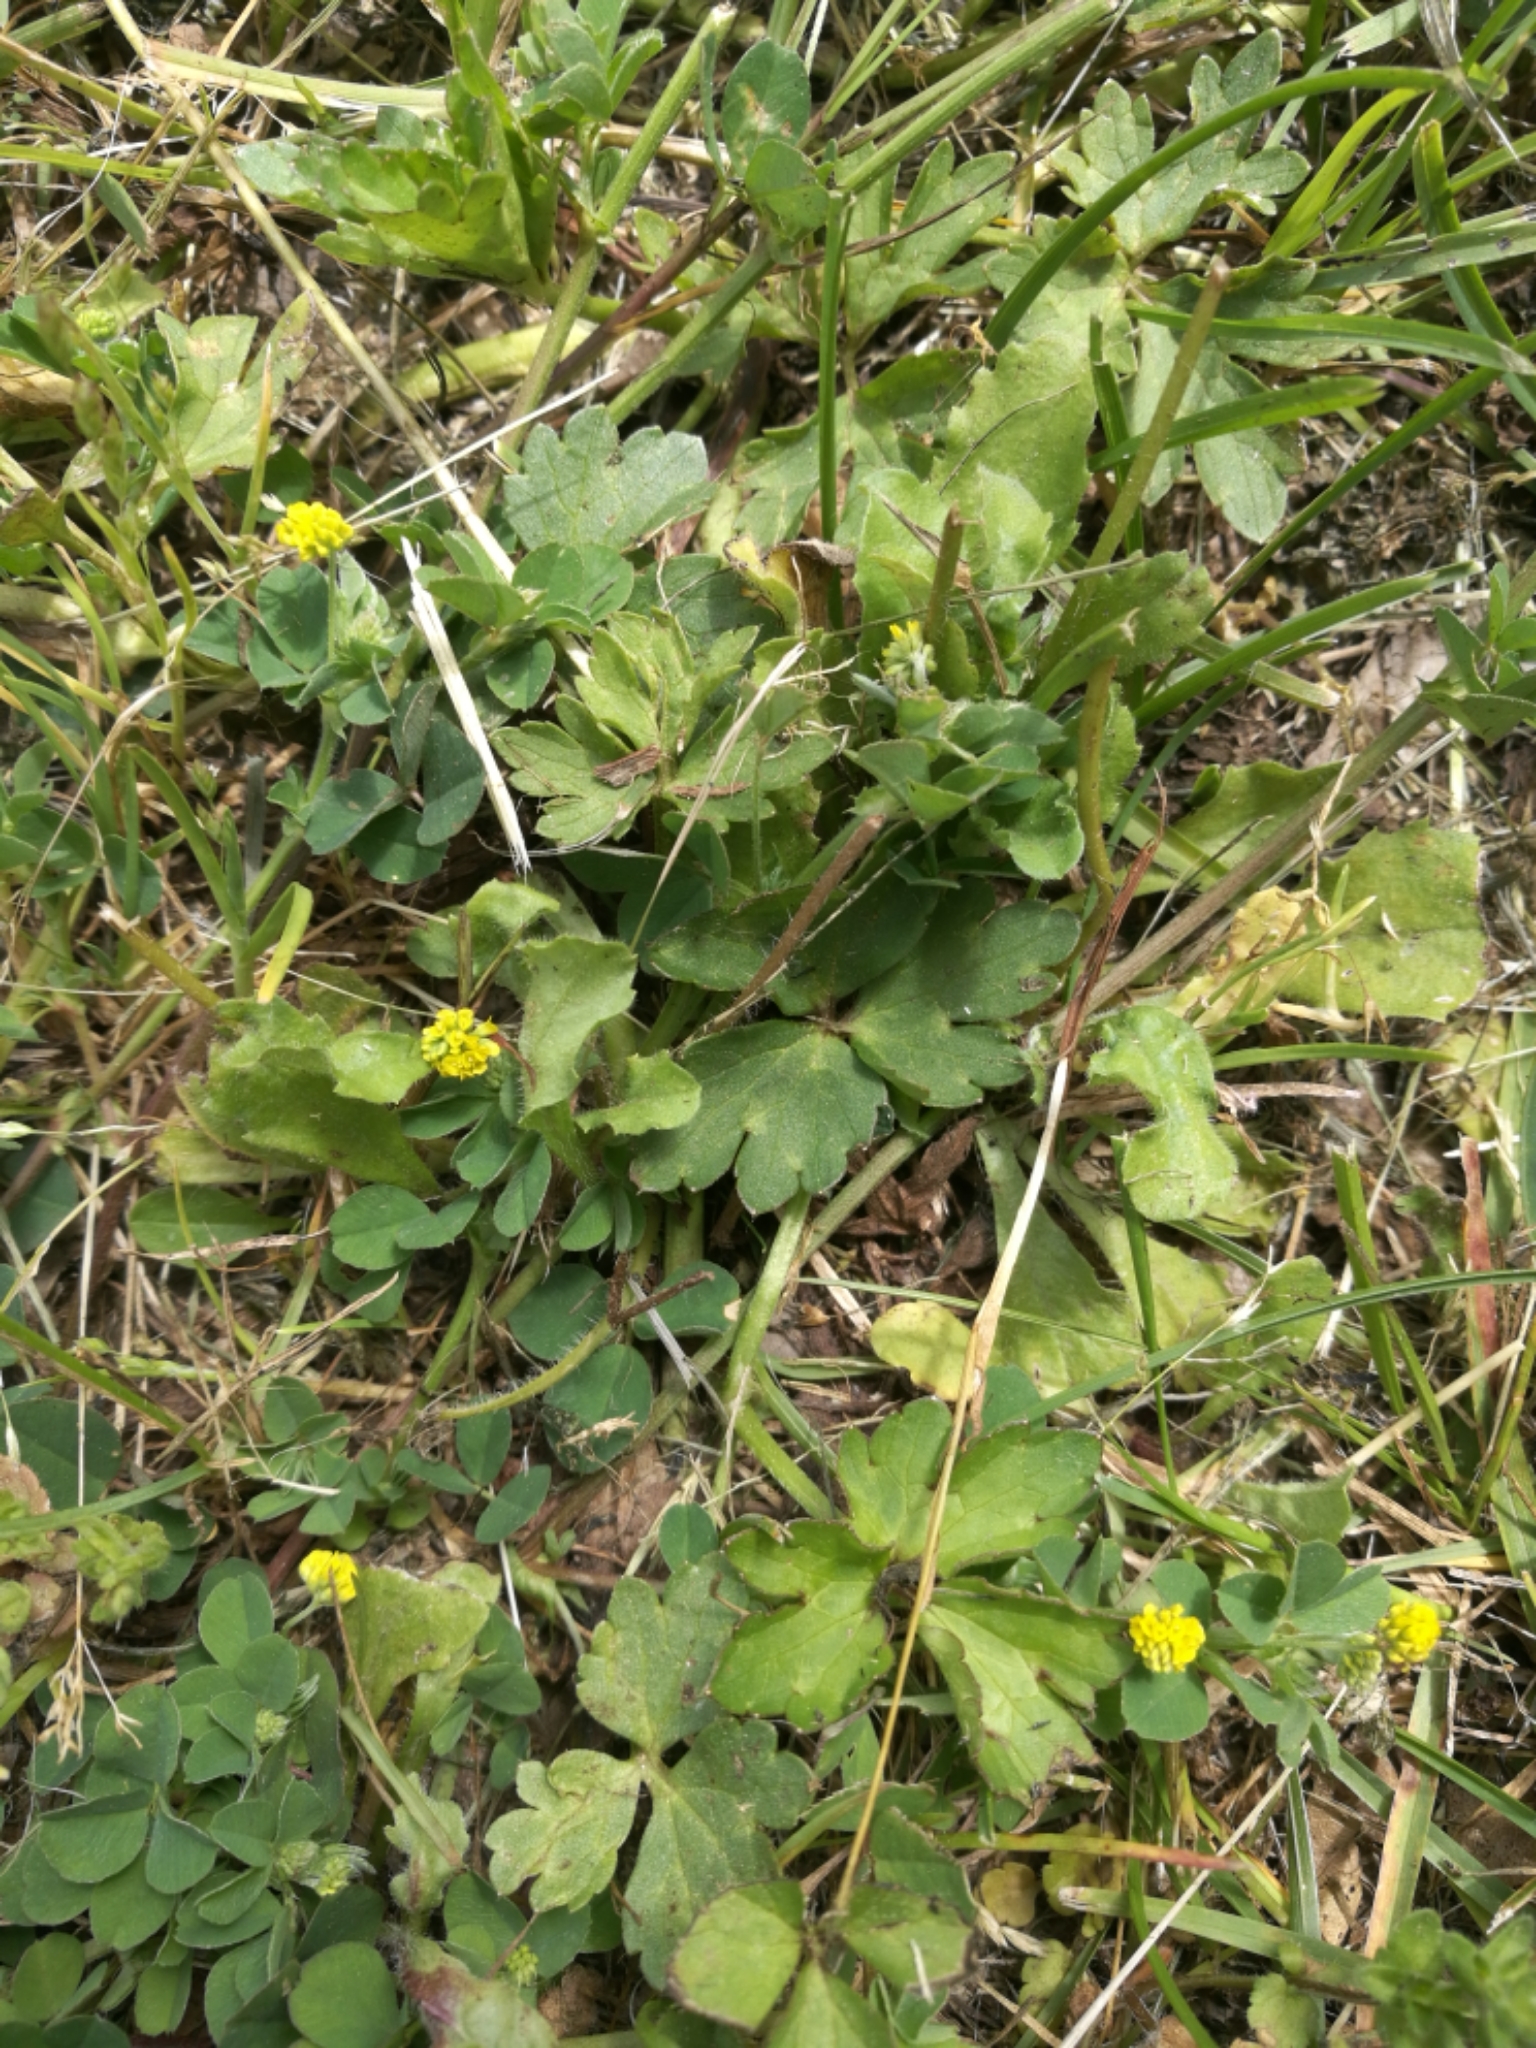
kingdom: Plantae
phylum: Tracheophyta
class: Magnoliopsida
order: Fabales
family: Fabaceae
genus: Medicago
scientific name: Medicago lupulina
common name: Black medick
